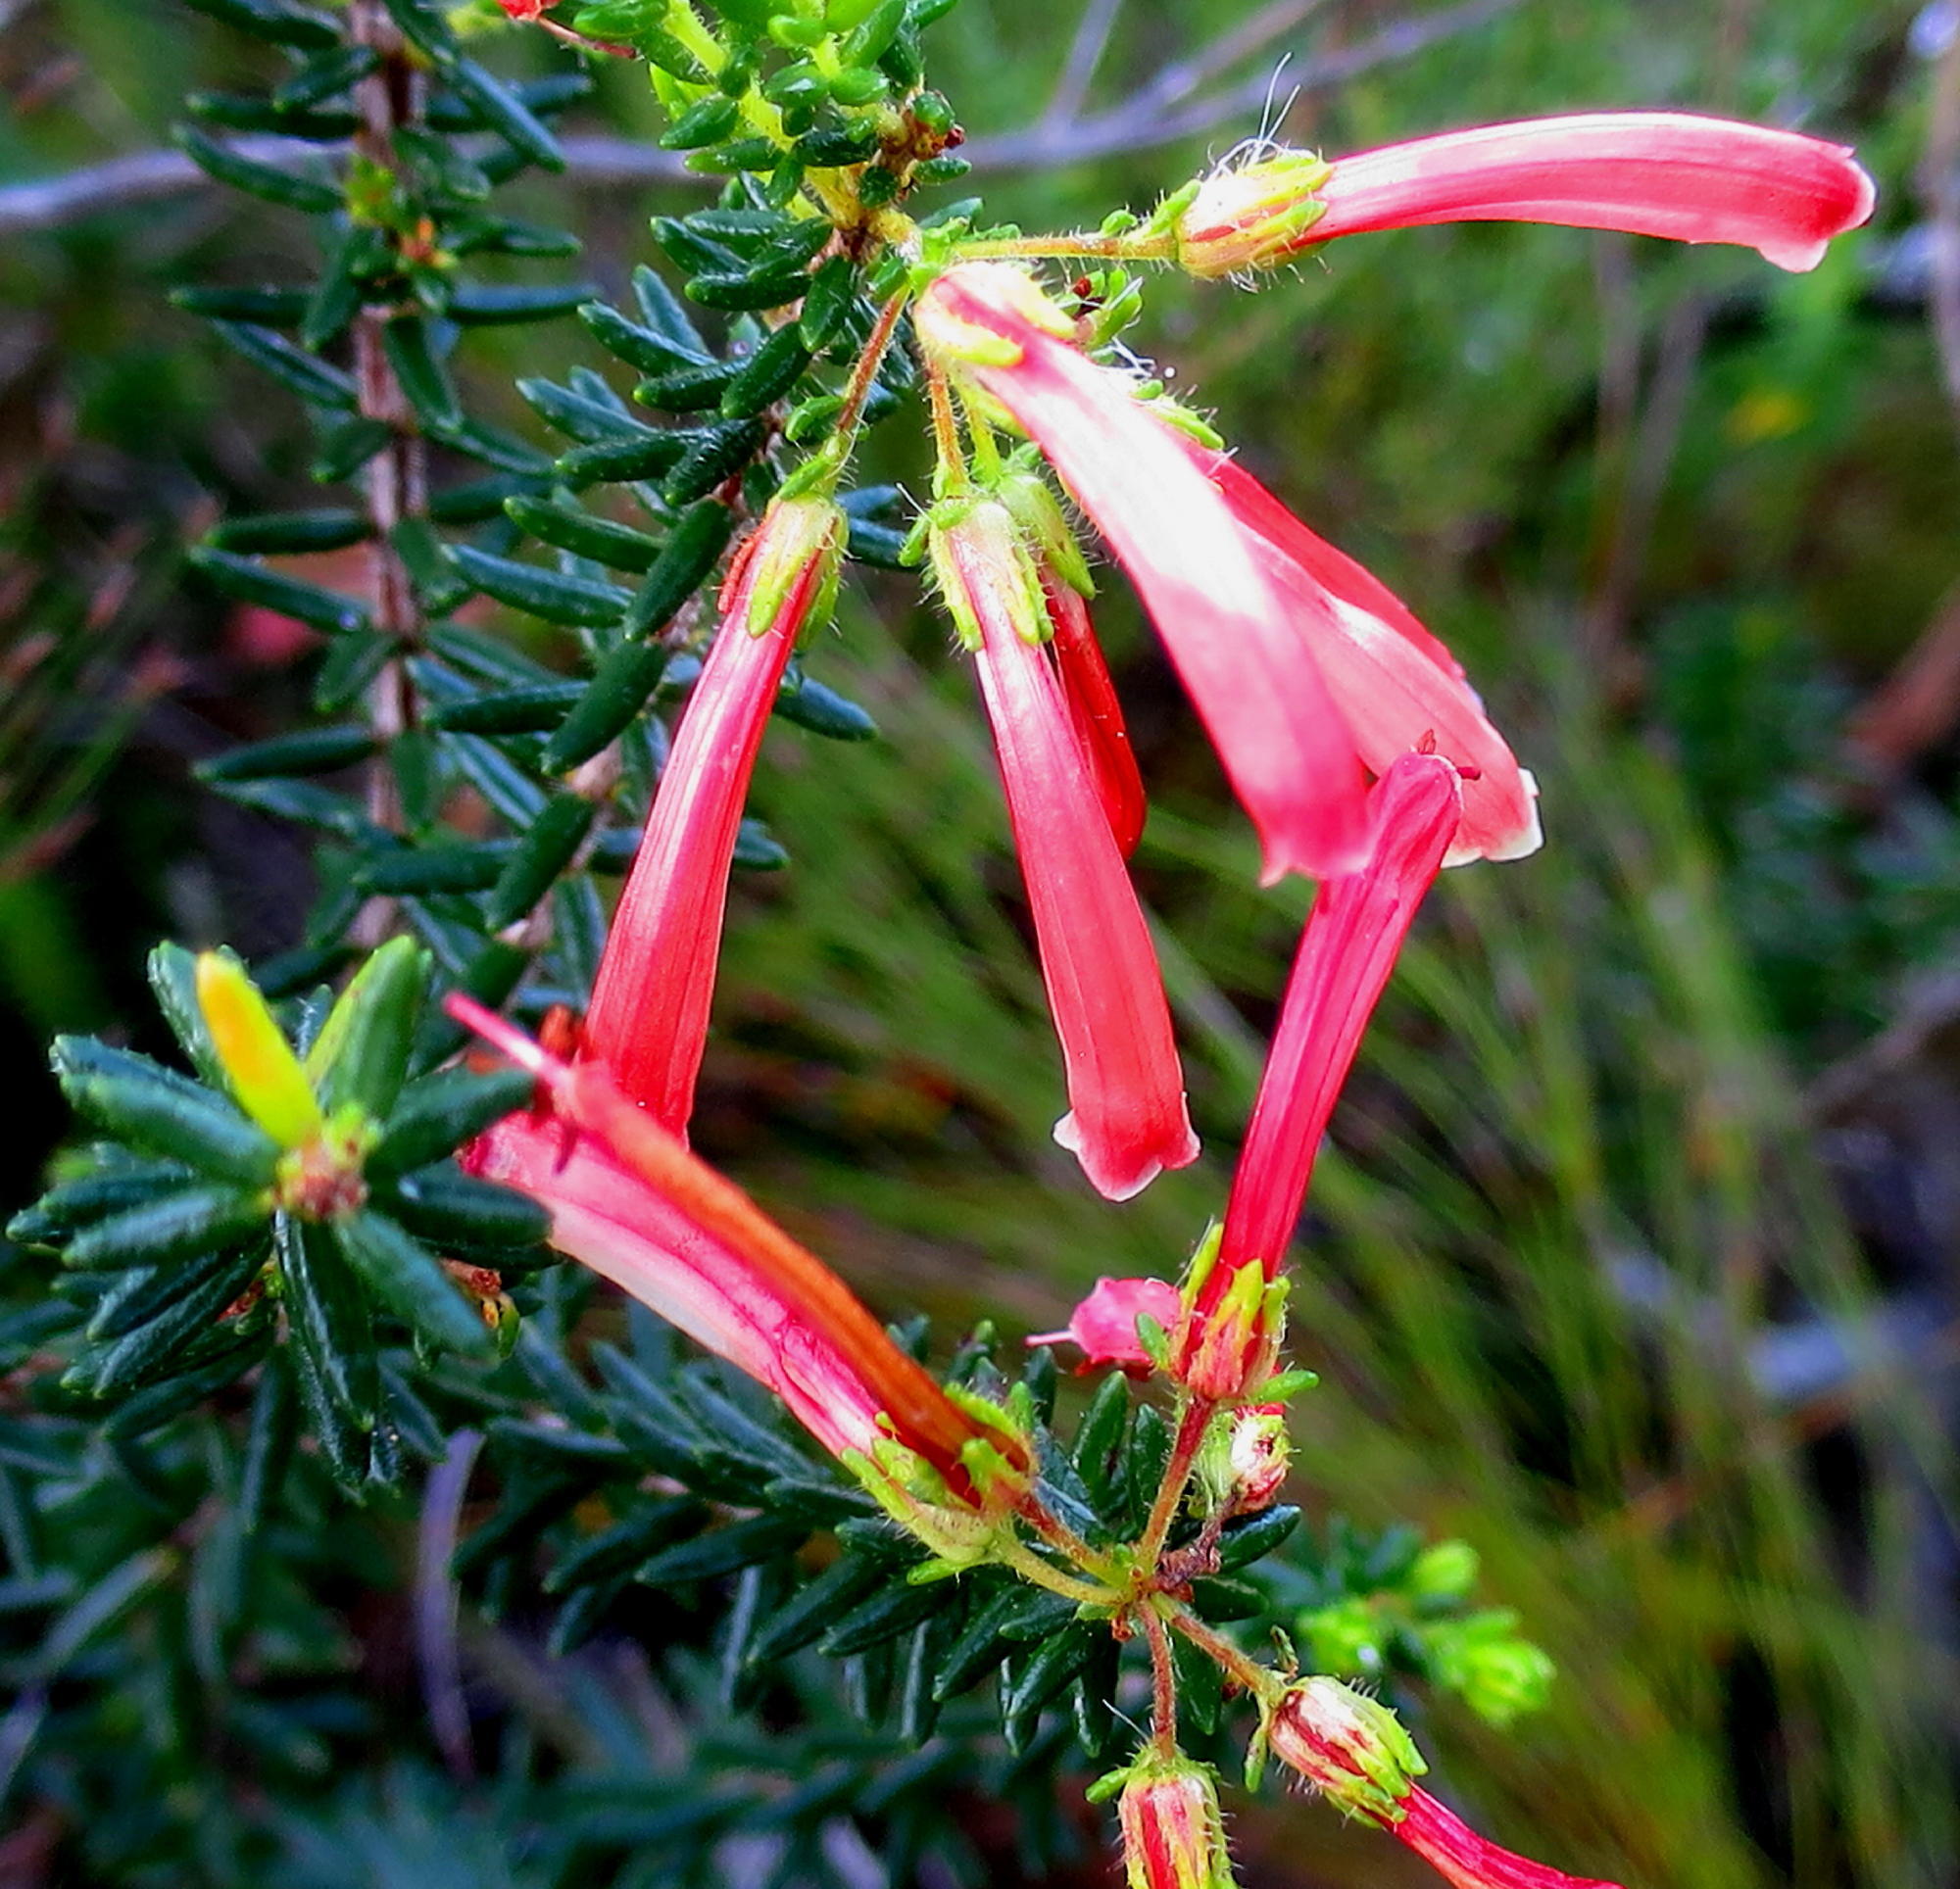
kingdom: Plantae
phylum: Tracheophyta
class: Magnoliopsida
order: Ericales
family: Ericaceae
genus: Erica
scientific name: Erica glandulosa
